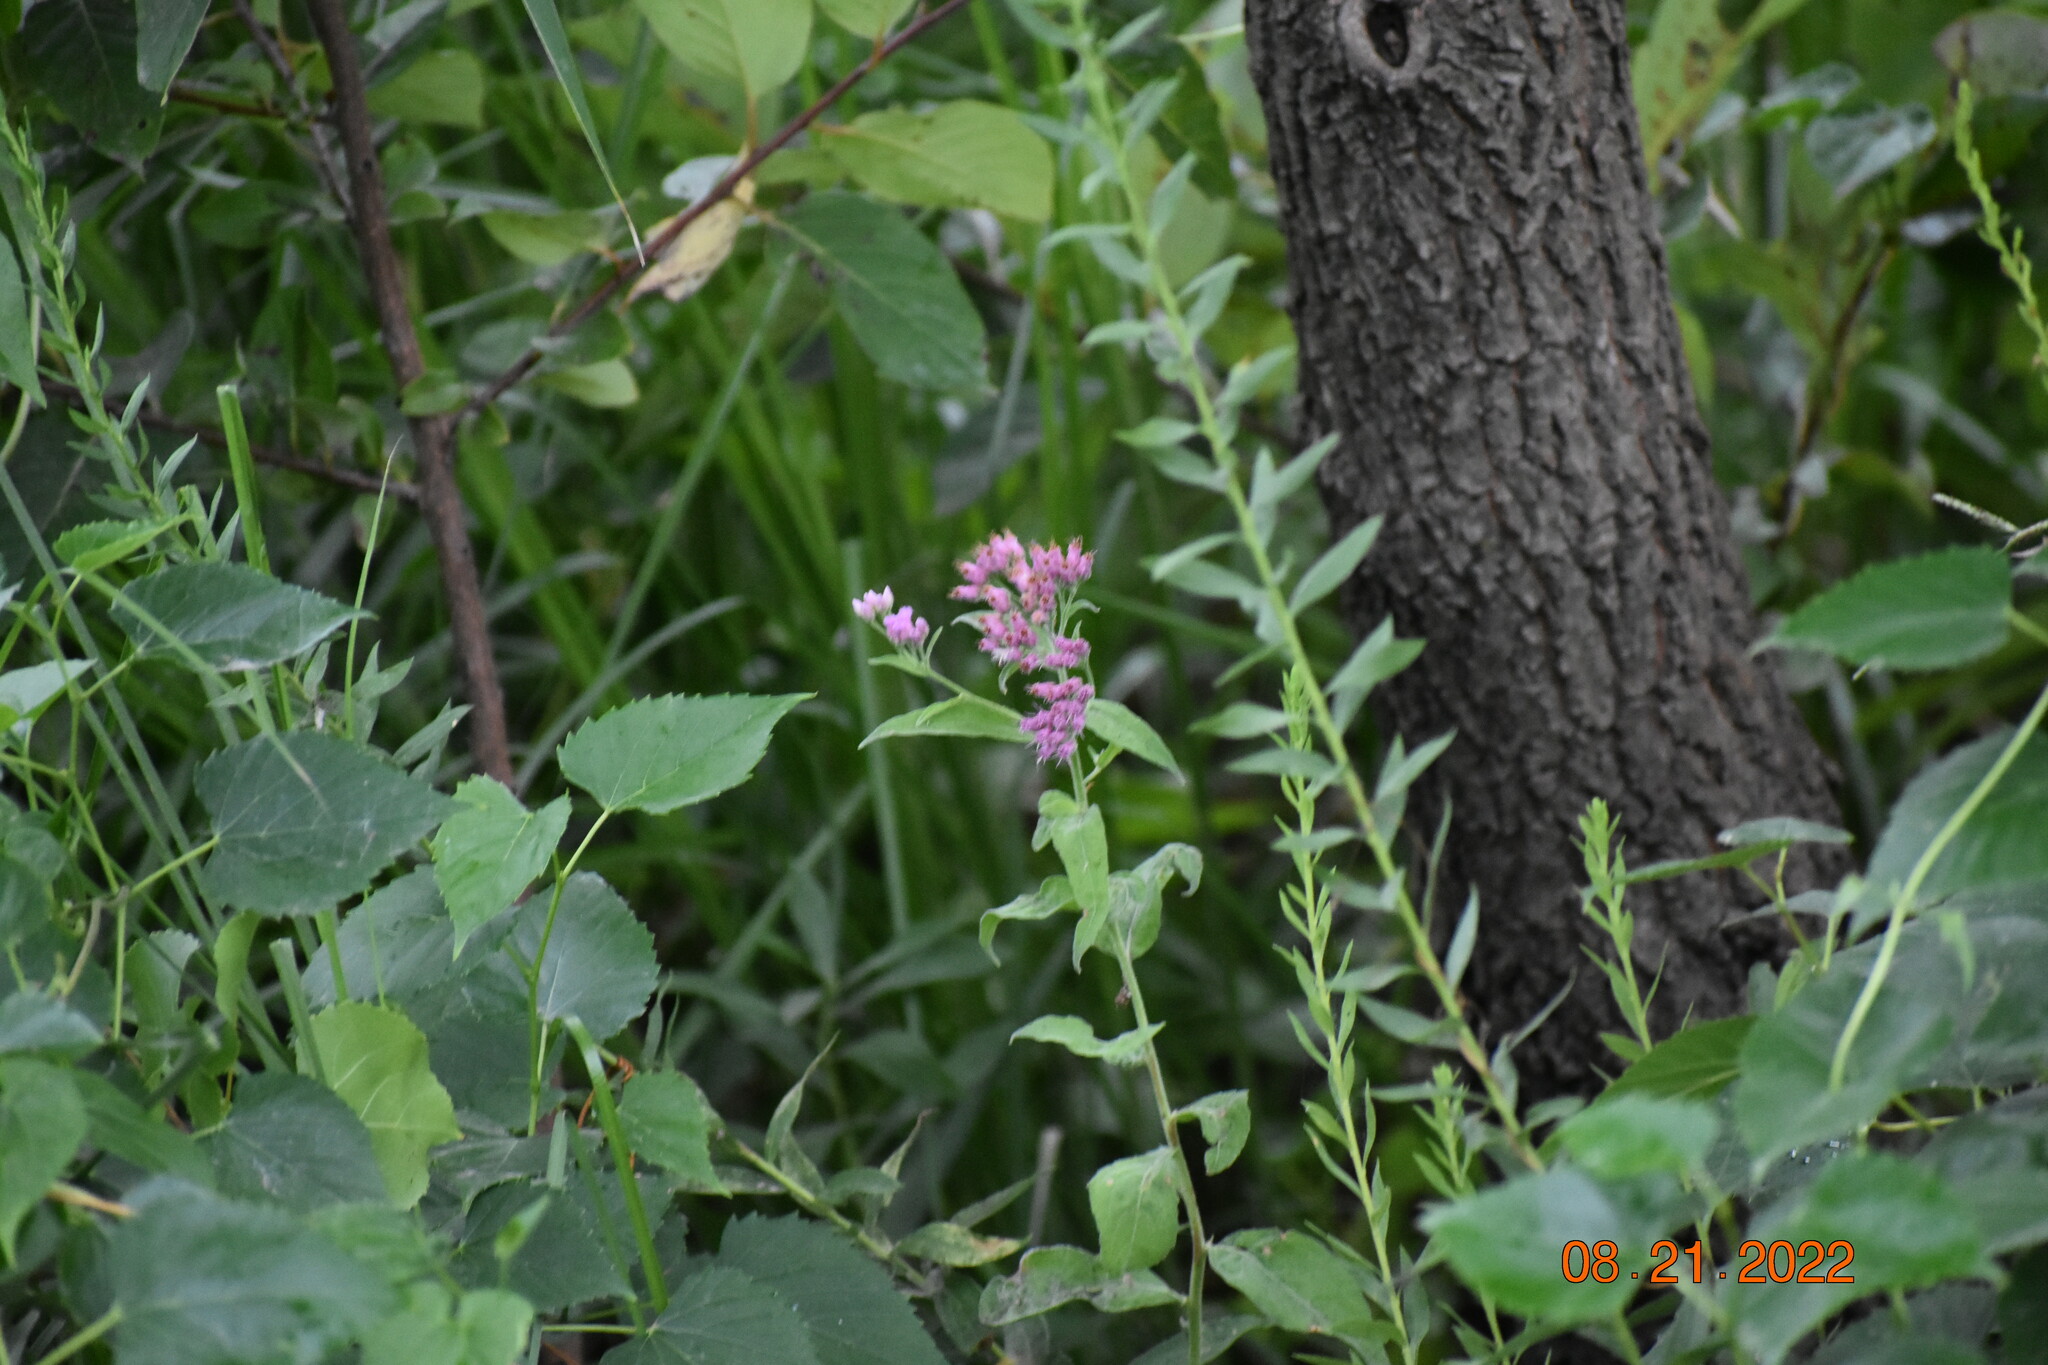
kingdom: Plantae
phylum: Tracheophyta
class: Magnoliopsida
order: Asterales
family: Asteraceae
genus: Pluchea
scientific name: Pluchea odorata
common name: Saltmarsh fleabane
